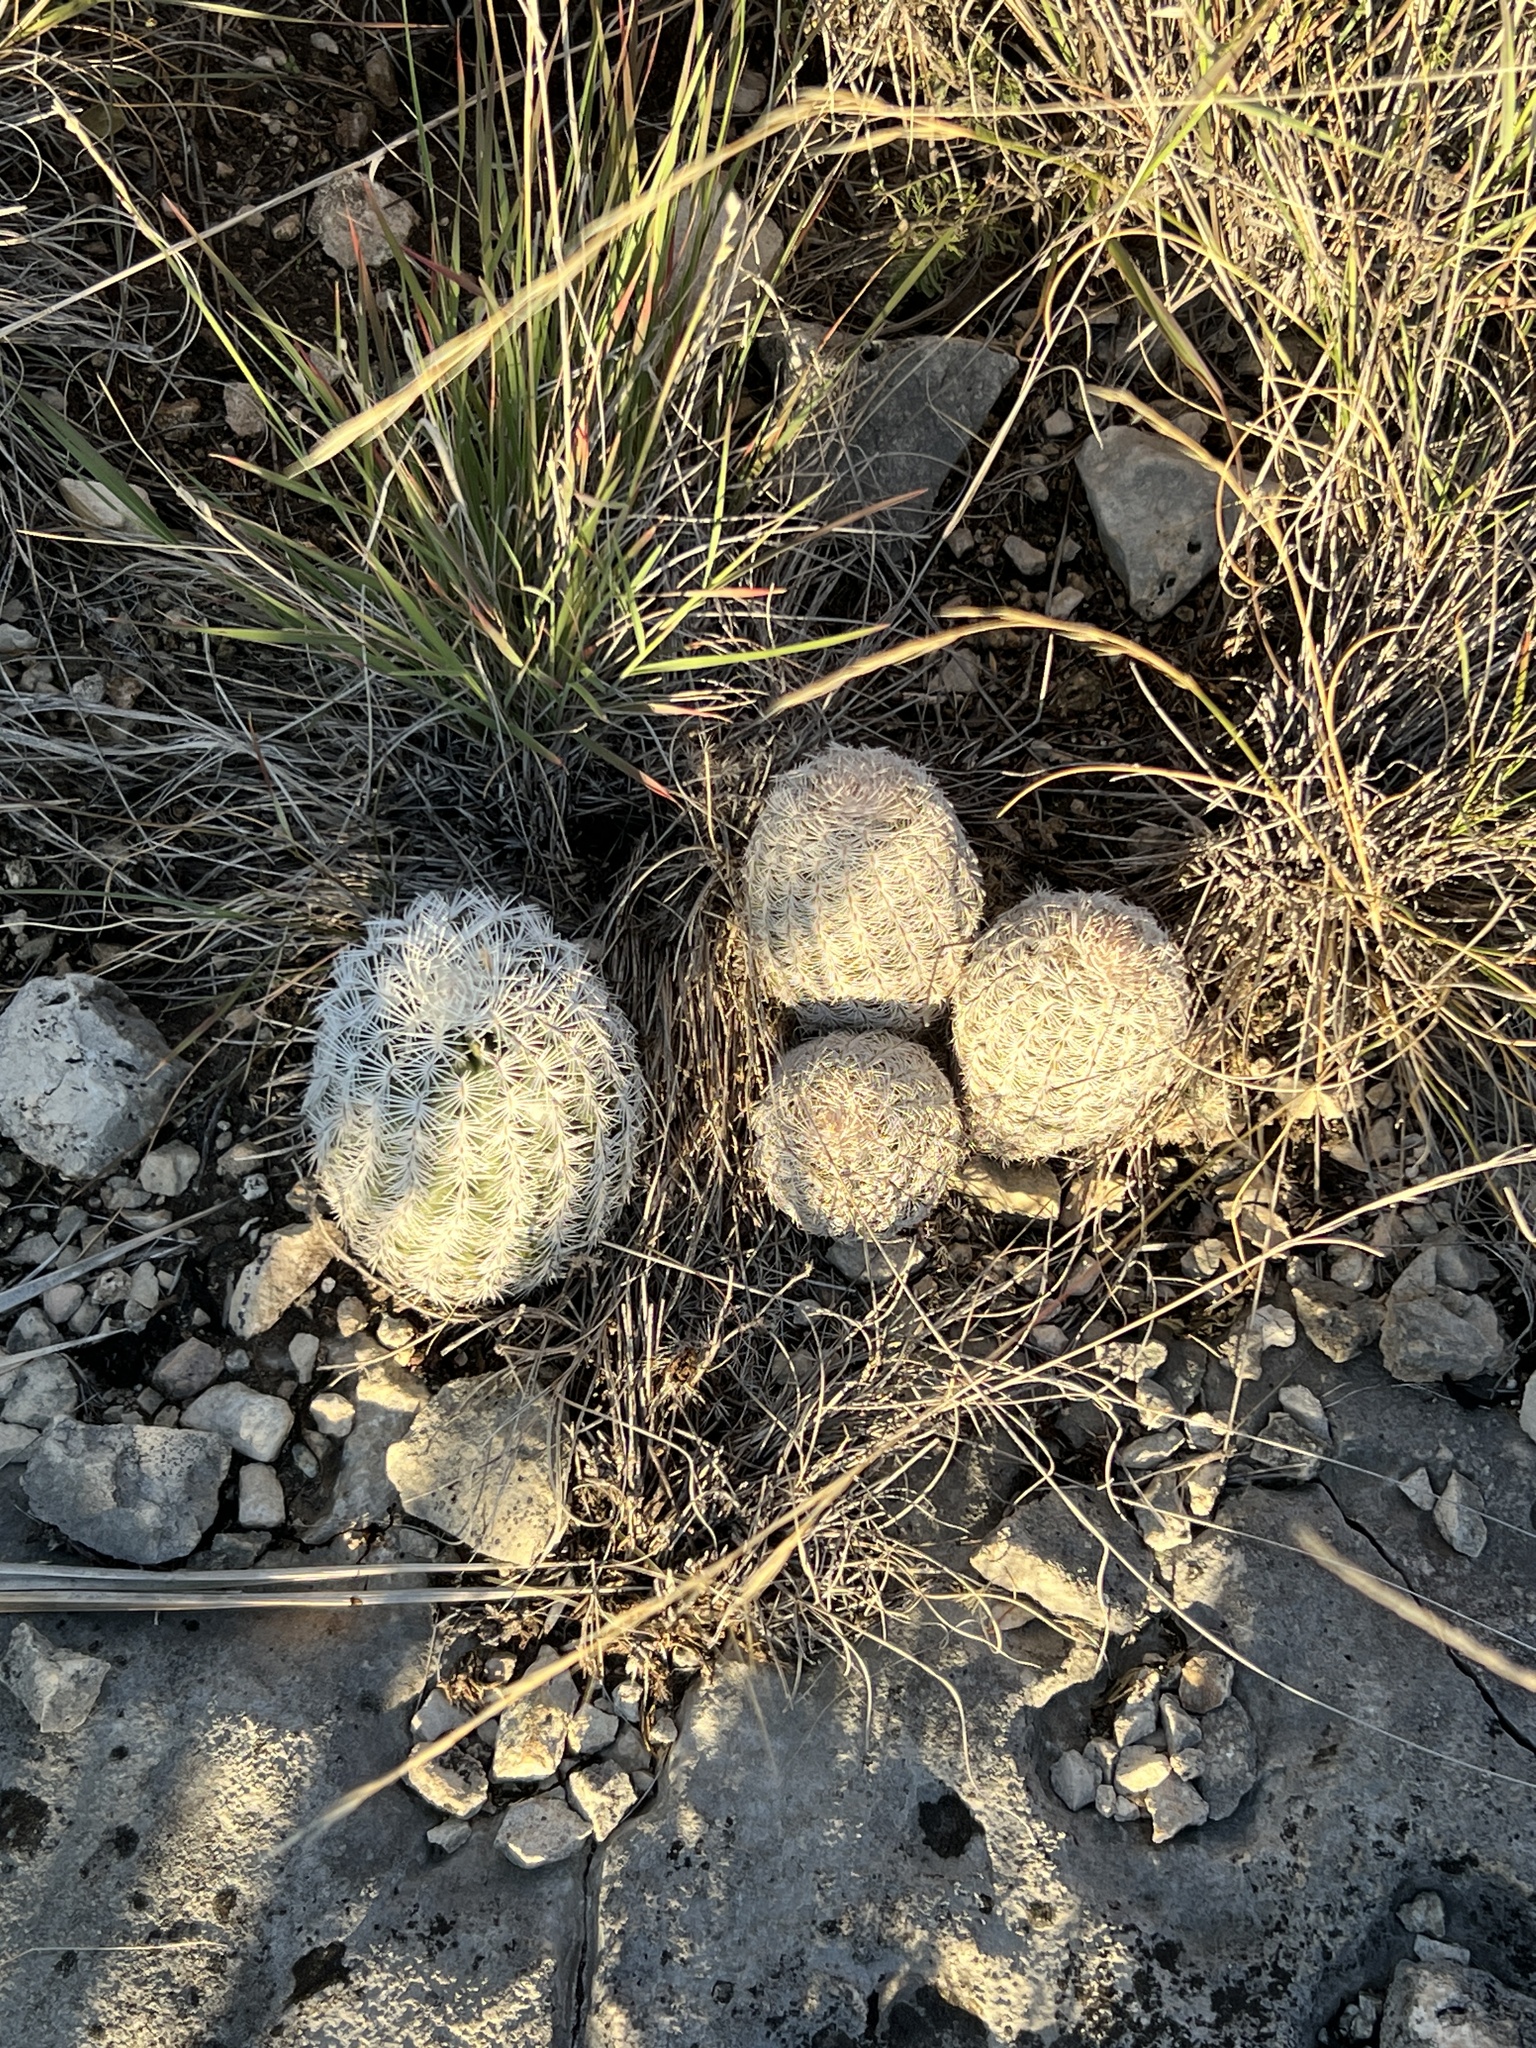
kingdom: Plantae
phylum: Tracheophyta
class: Magnoliopsida
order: Caryophyllales
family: Cactaceae
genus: Echinocereus
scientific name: Echinocereus reichenbachii
